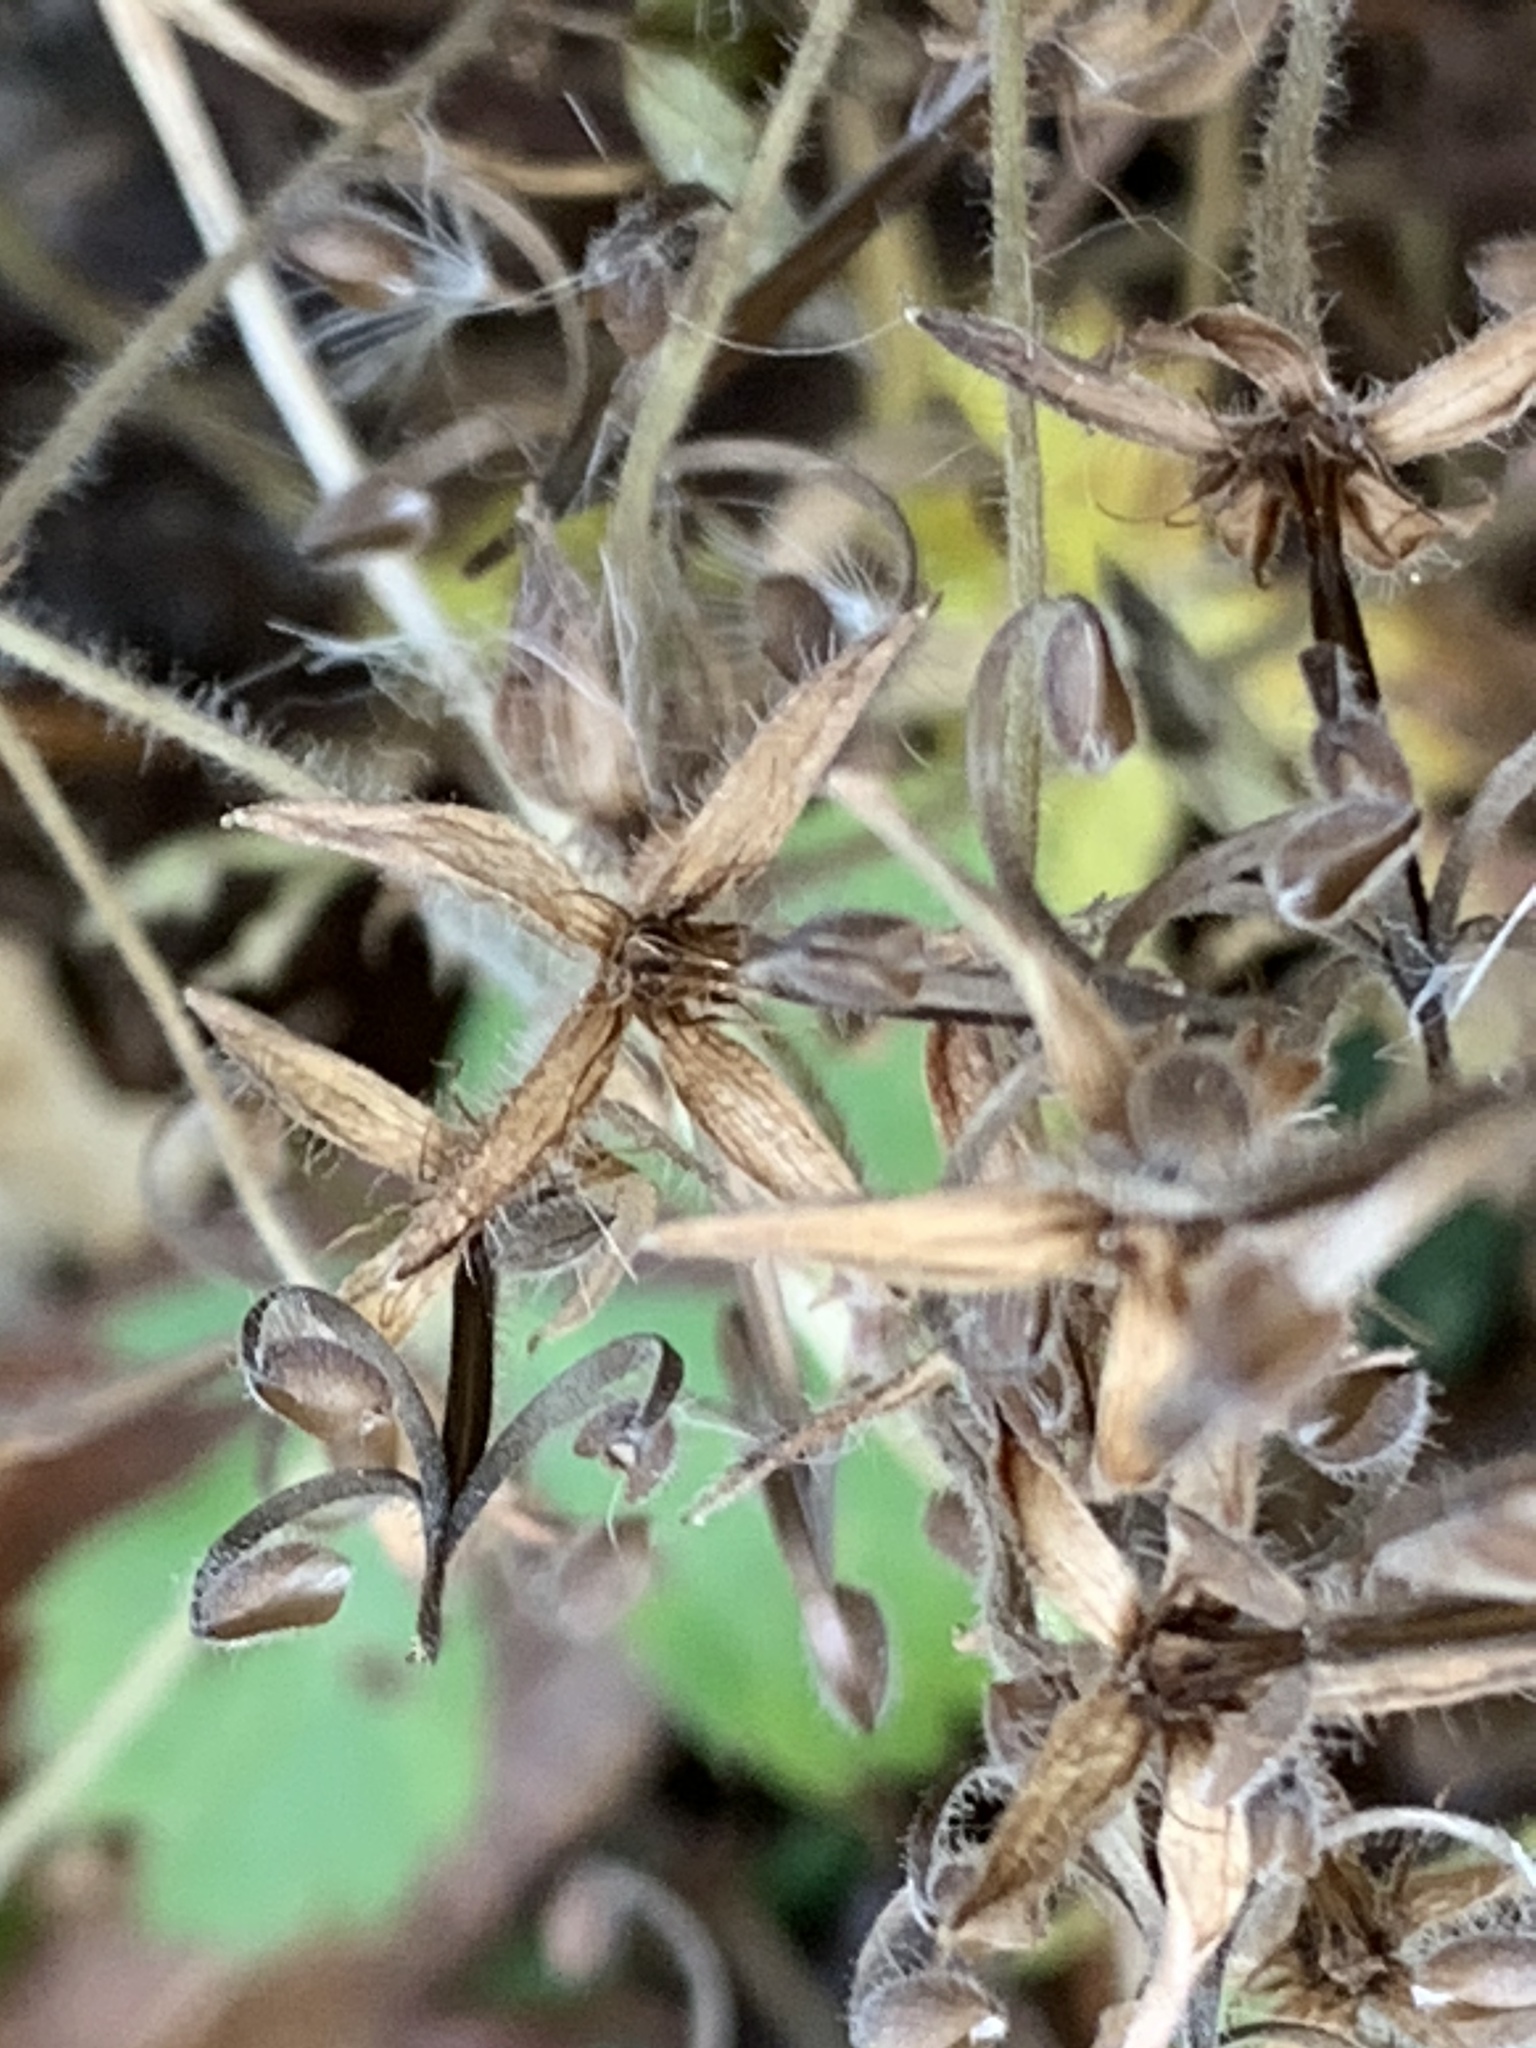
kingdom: Plantae
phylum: Tracheophyta
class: Magnoliopsida
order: Geraniales
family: Geraniaceae
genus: Geranium
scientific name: Geranium thunbergii
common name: Dewdrop crane's-bill
